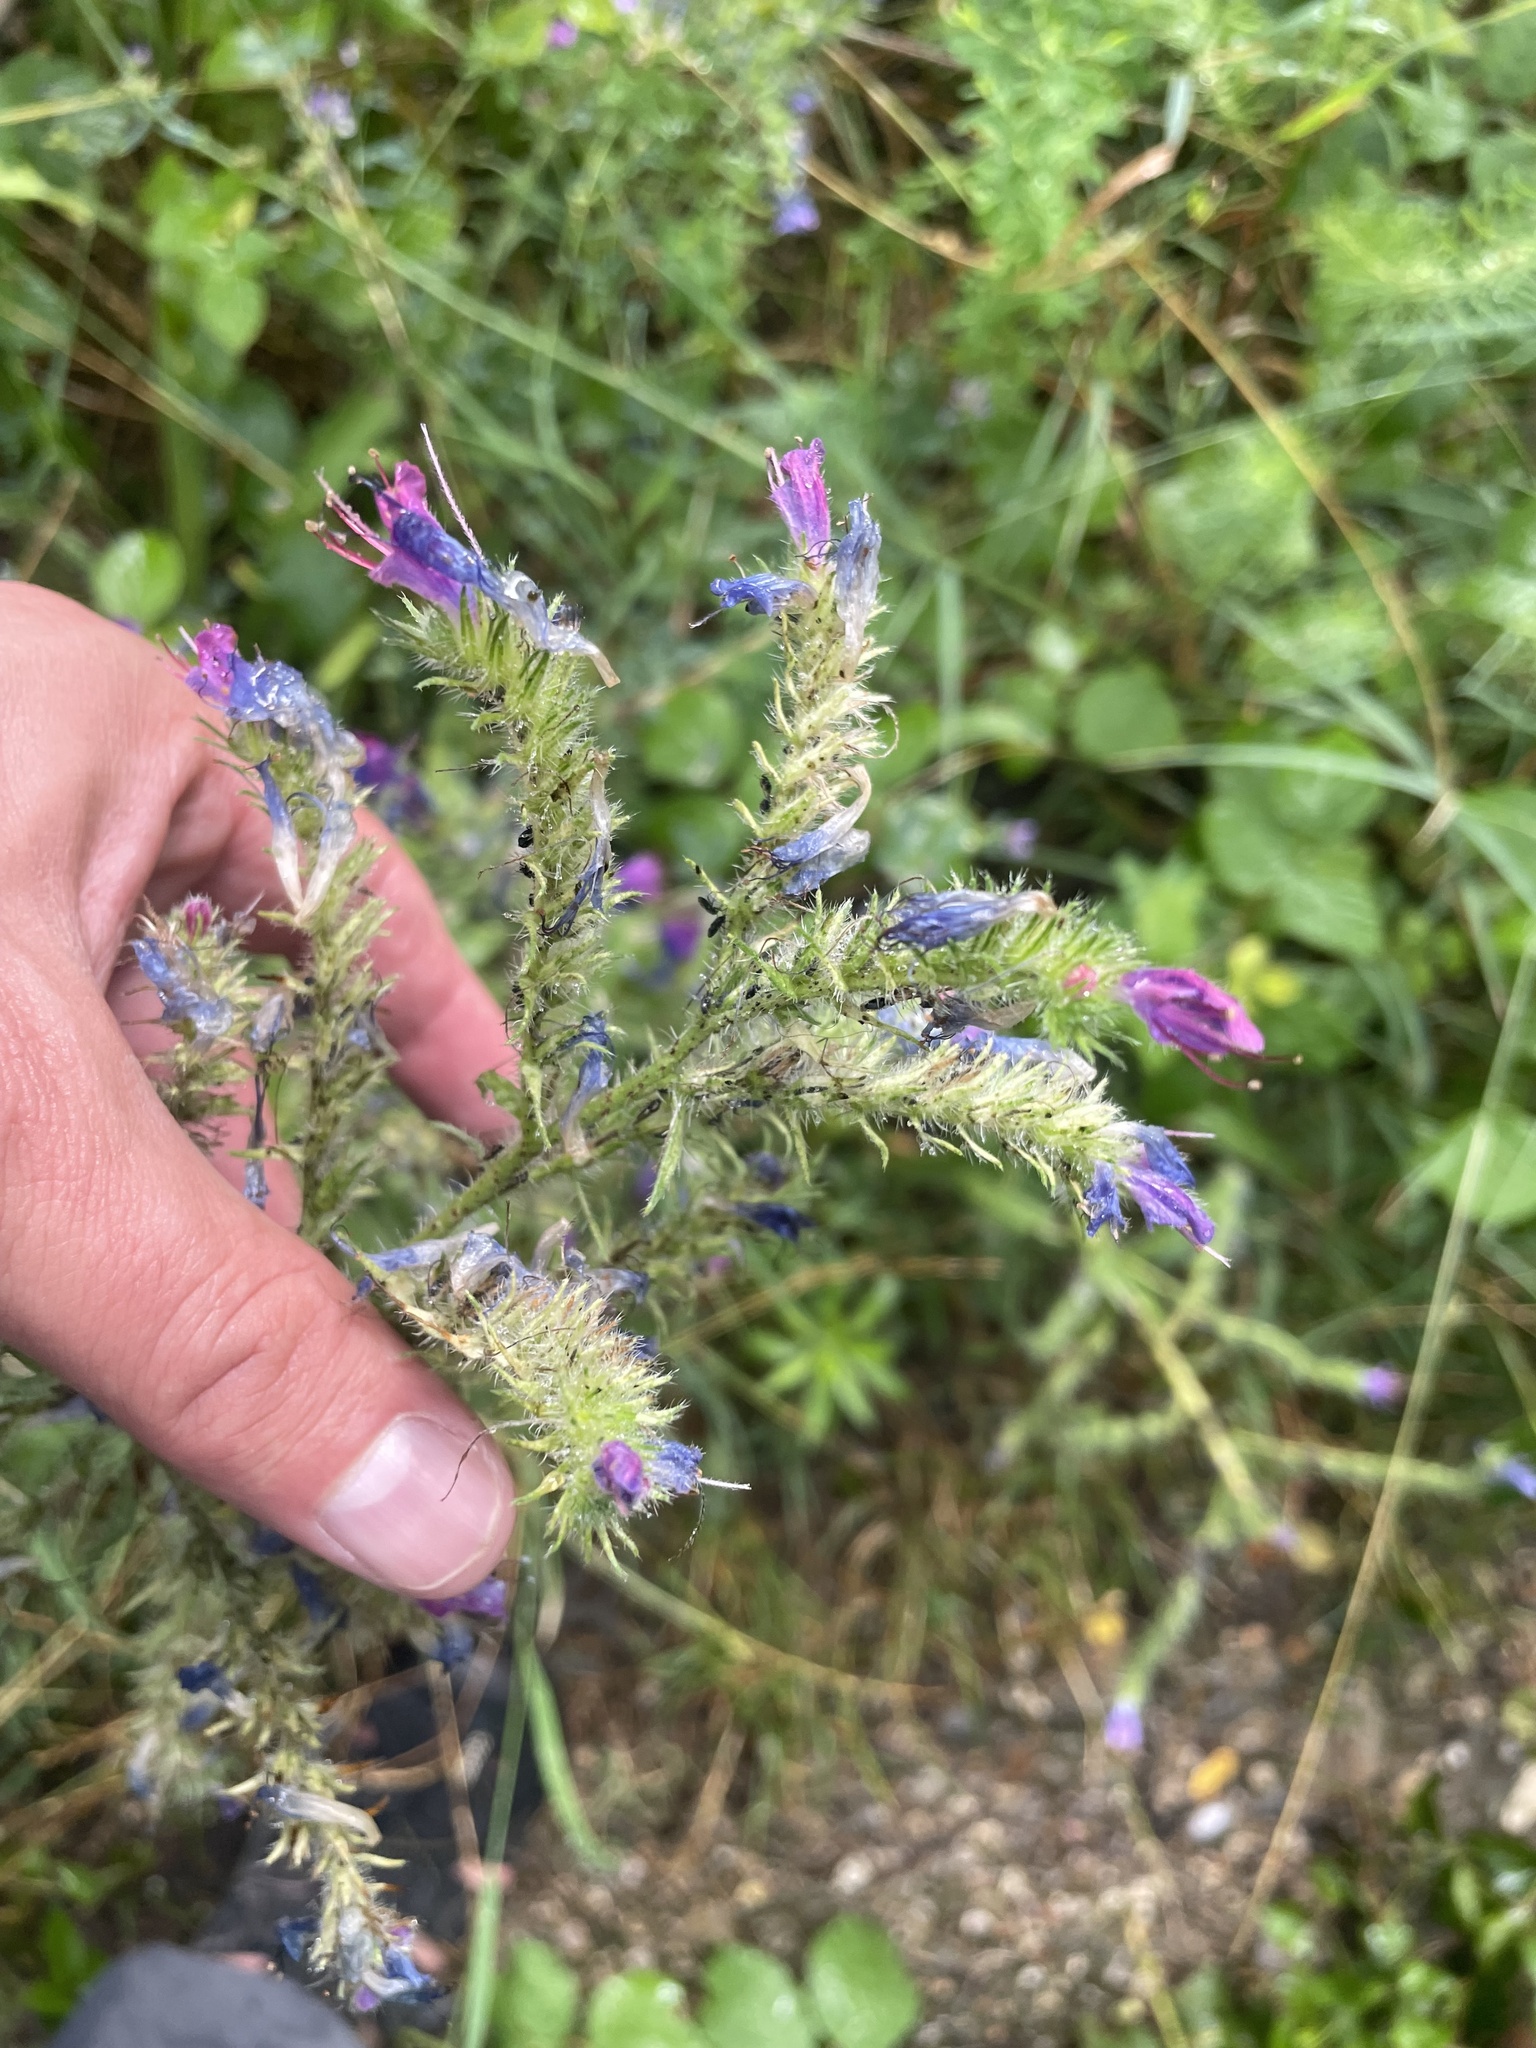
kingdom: Plantae
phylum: Tracheophyta
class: Magnoliopsida
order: Boraginales
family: Boraginaceae
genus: Echium
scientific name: Echium vulgare
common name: Common viper's bugloss
